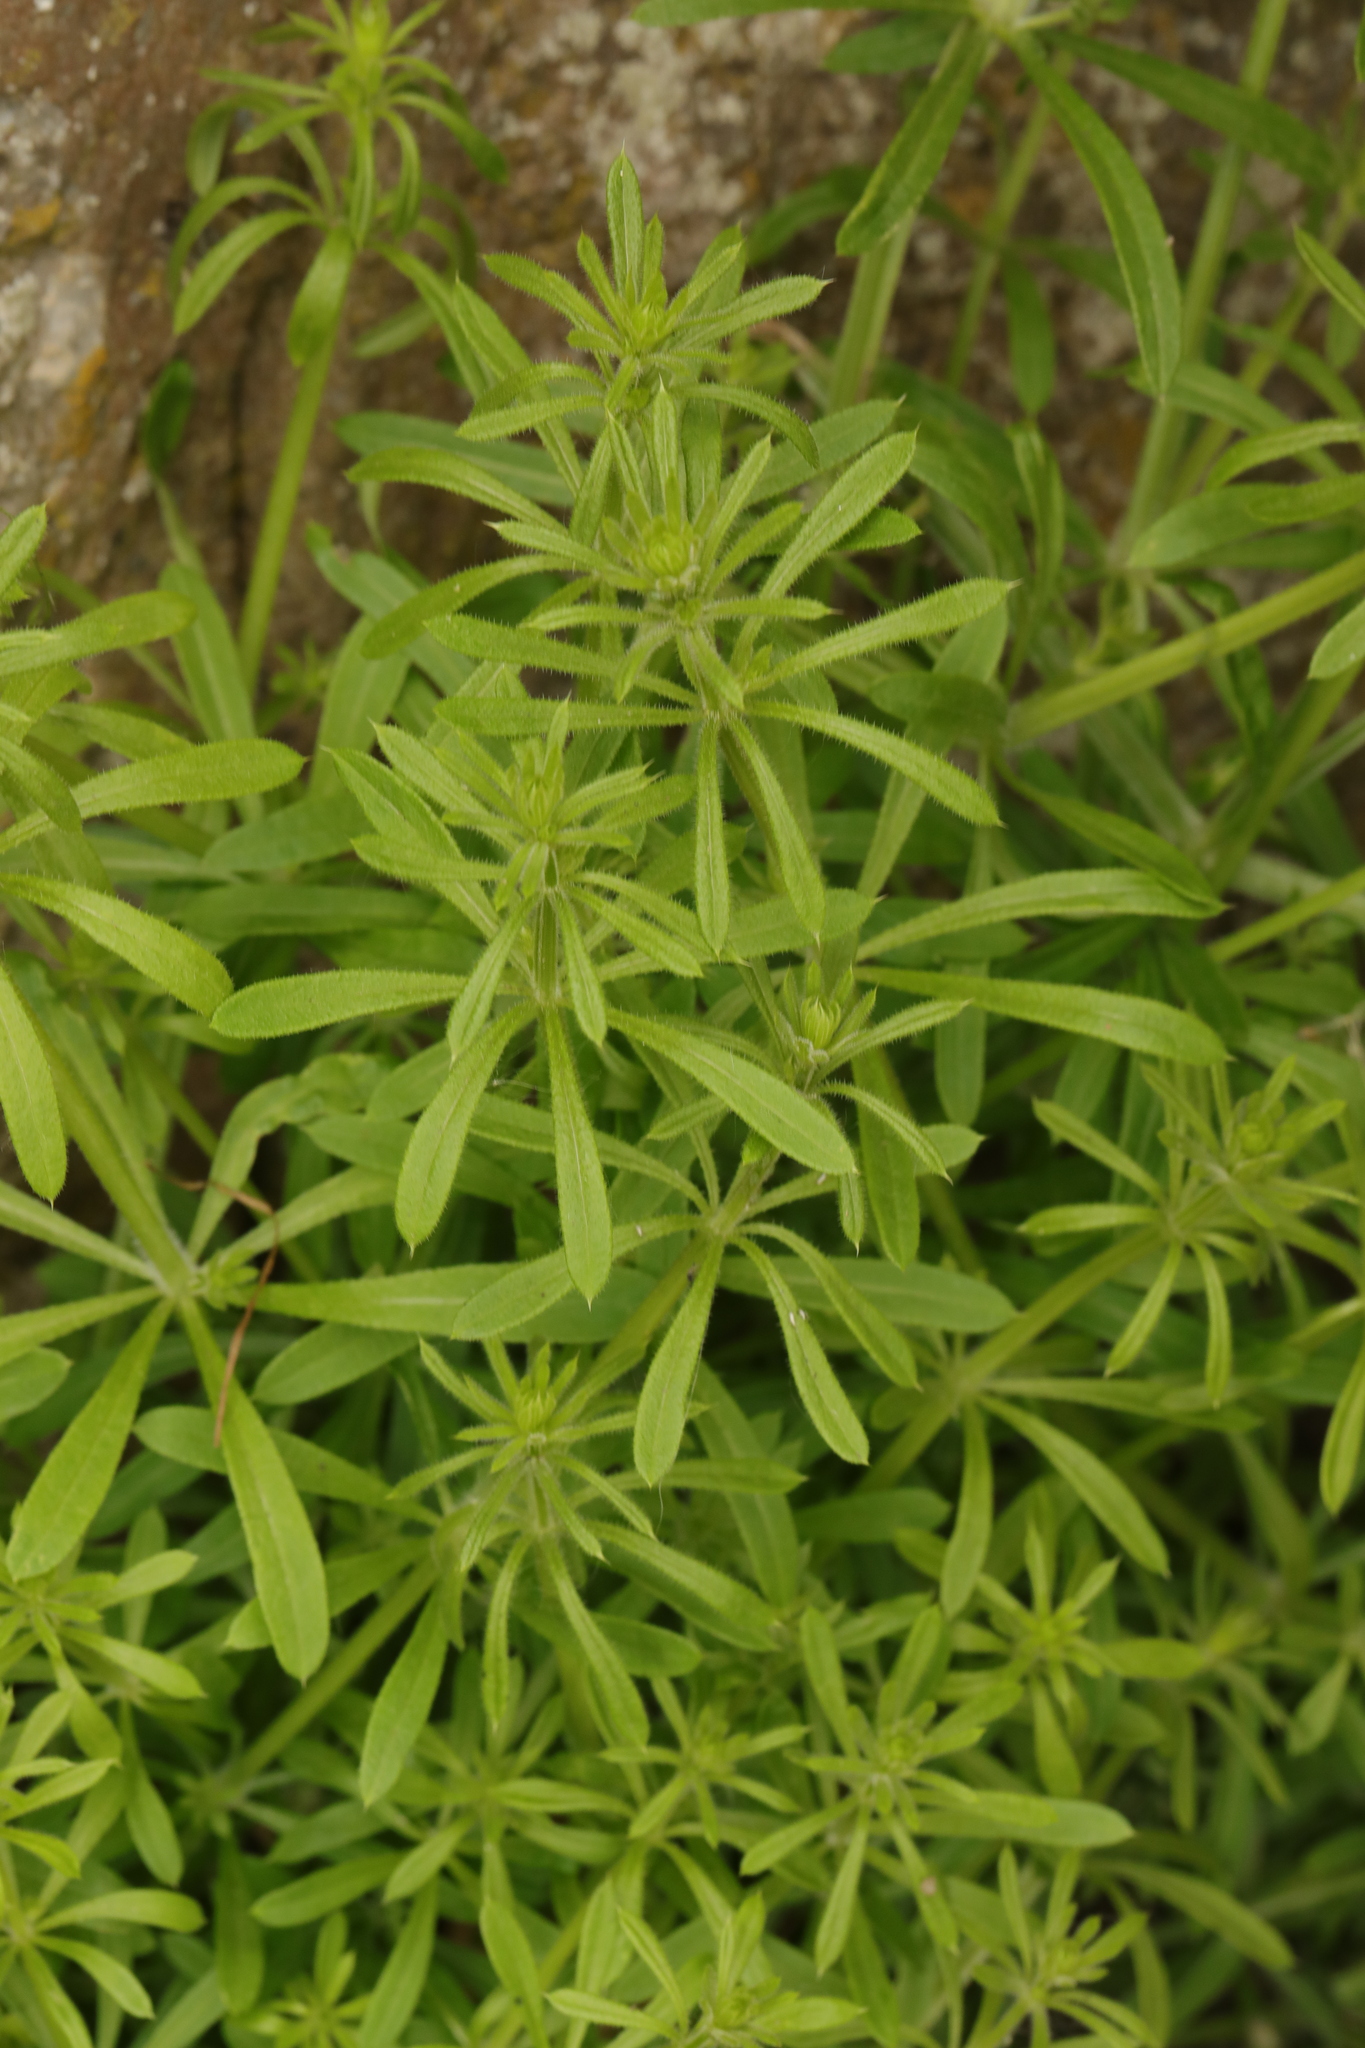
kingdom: Plantae
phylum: Tracheophyta
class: Magnoliopsida
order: Gentianales
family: Rubiaceae
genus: Galium
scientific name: Galium aparine
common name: Cleavers
